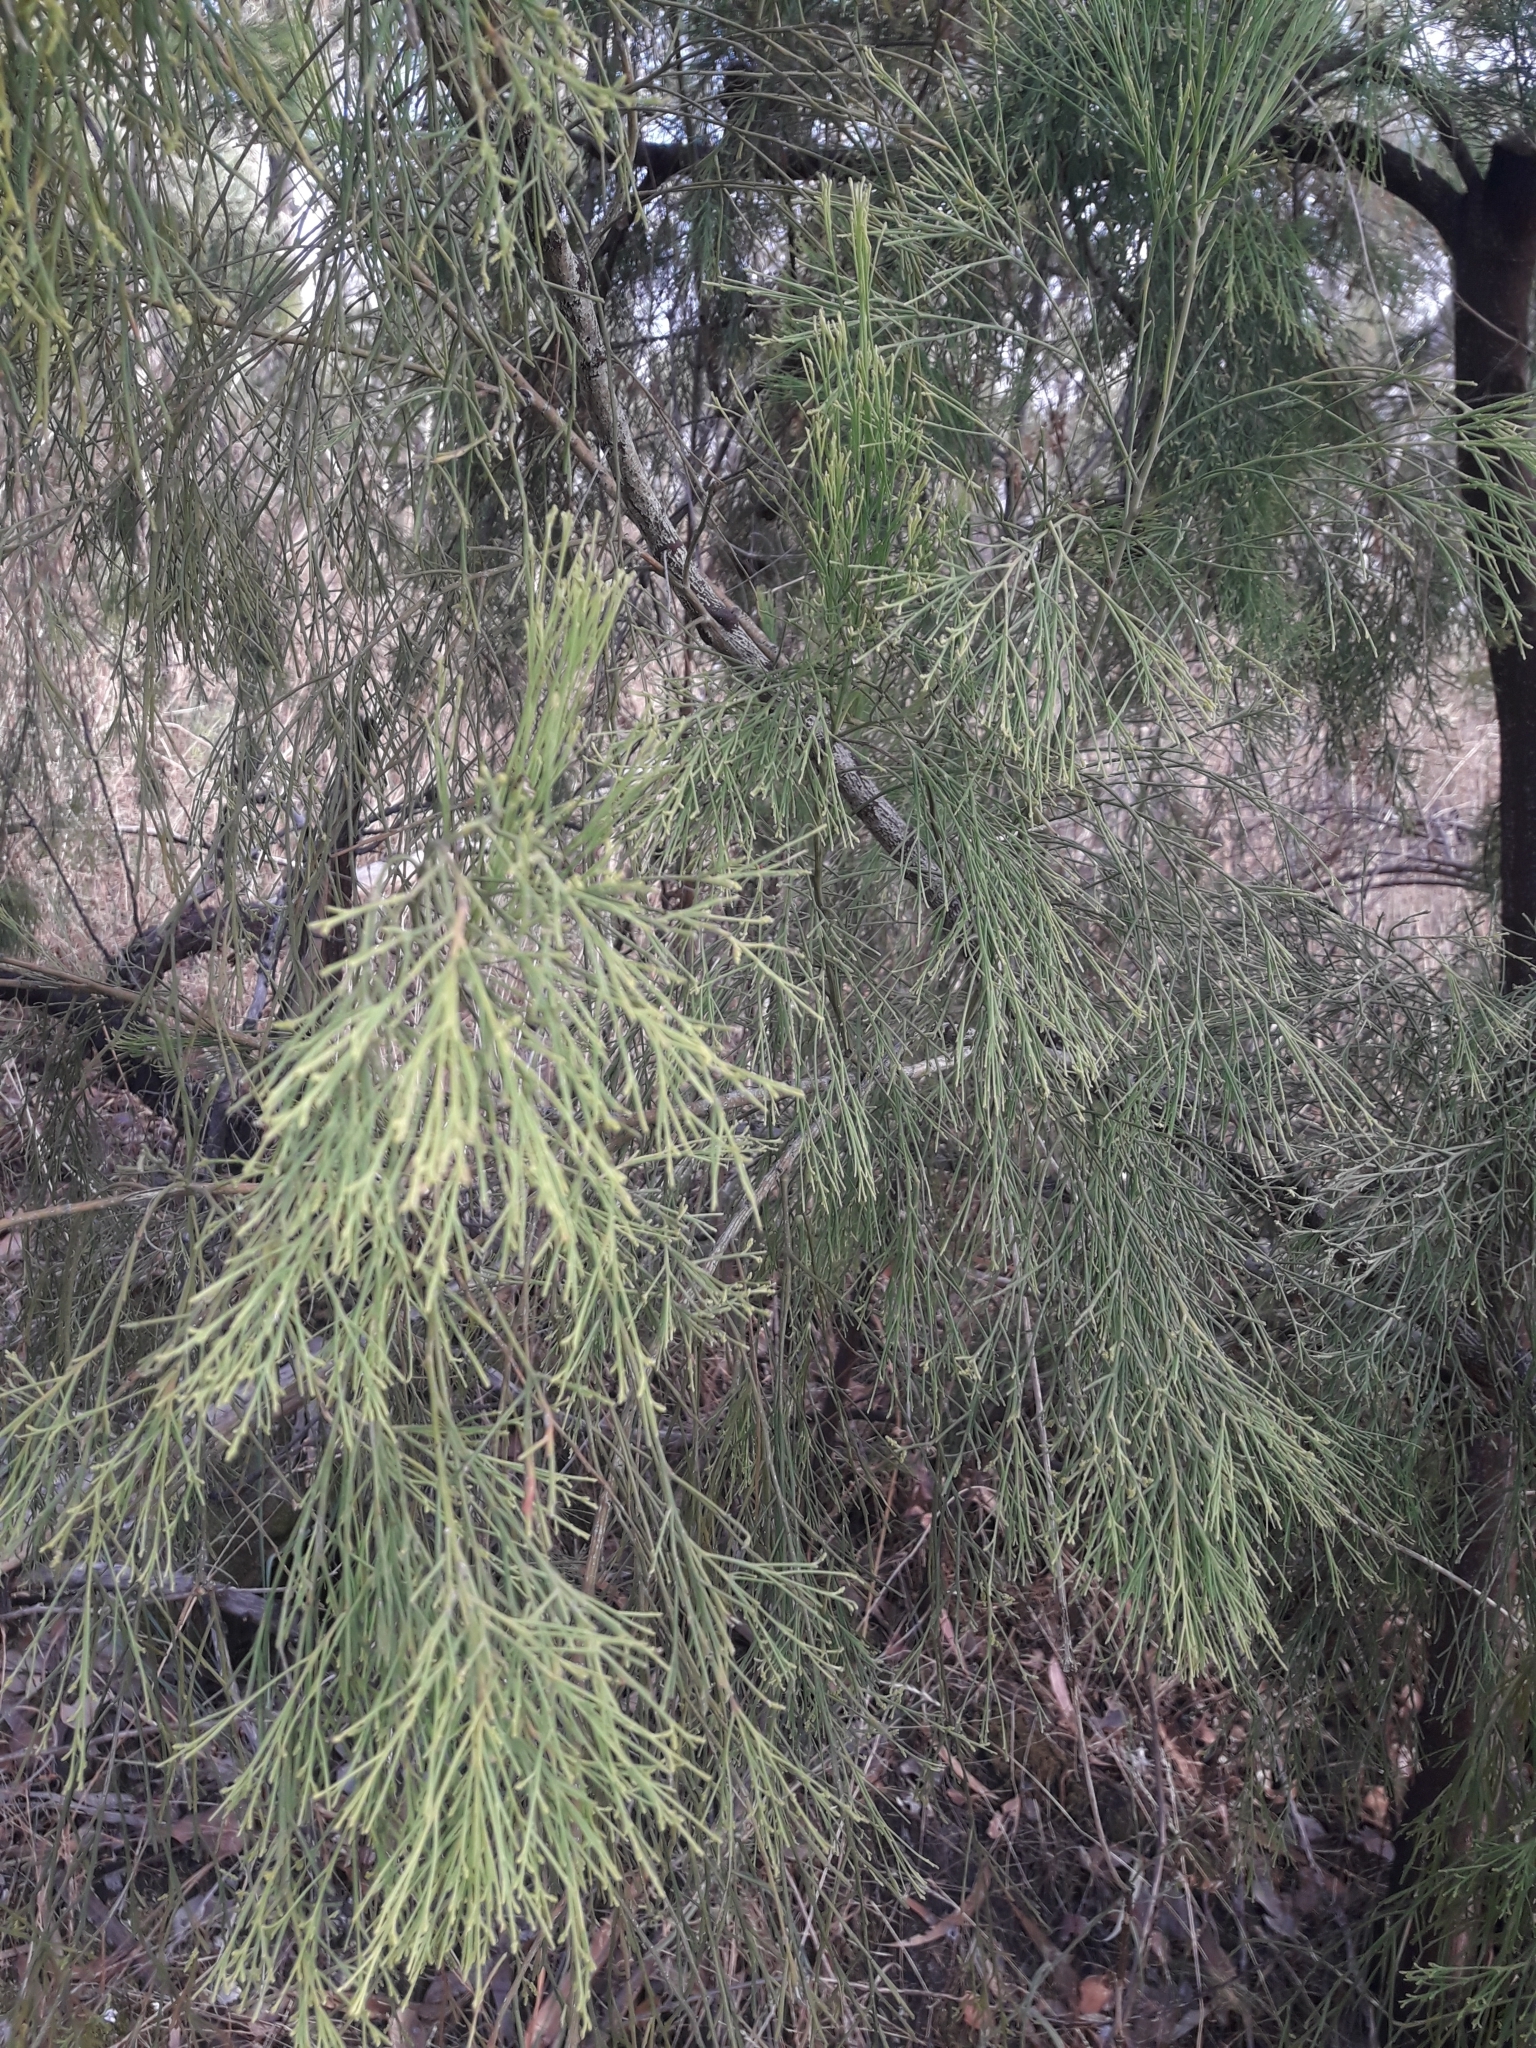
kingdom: Plantae
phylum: Tracheophyta
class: Magnoliopsida
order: Santalales
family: Santalaceae
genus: Exocarpos
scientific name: Exocarpos cupressiformis
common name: Cherry ballart
